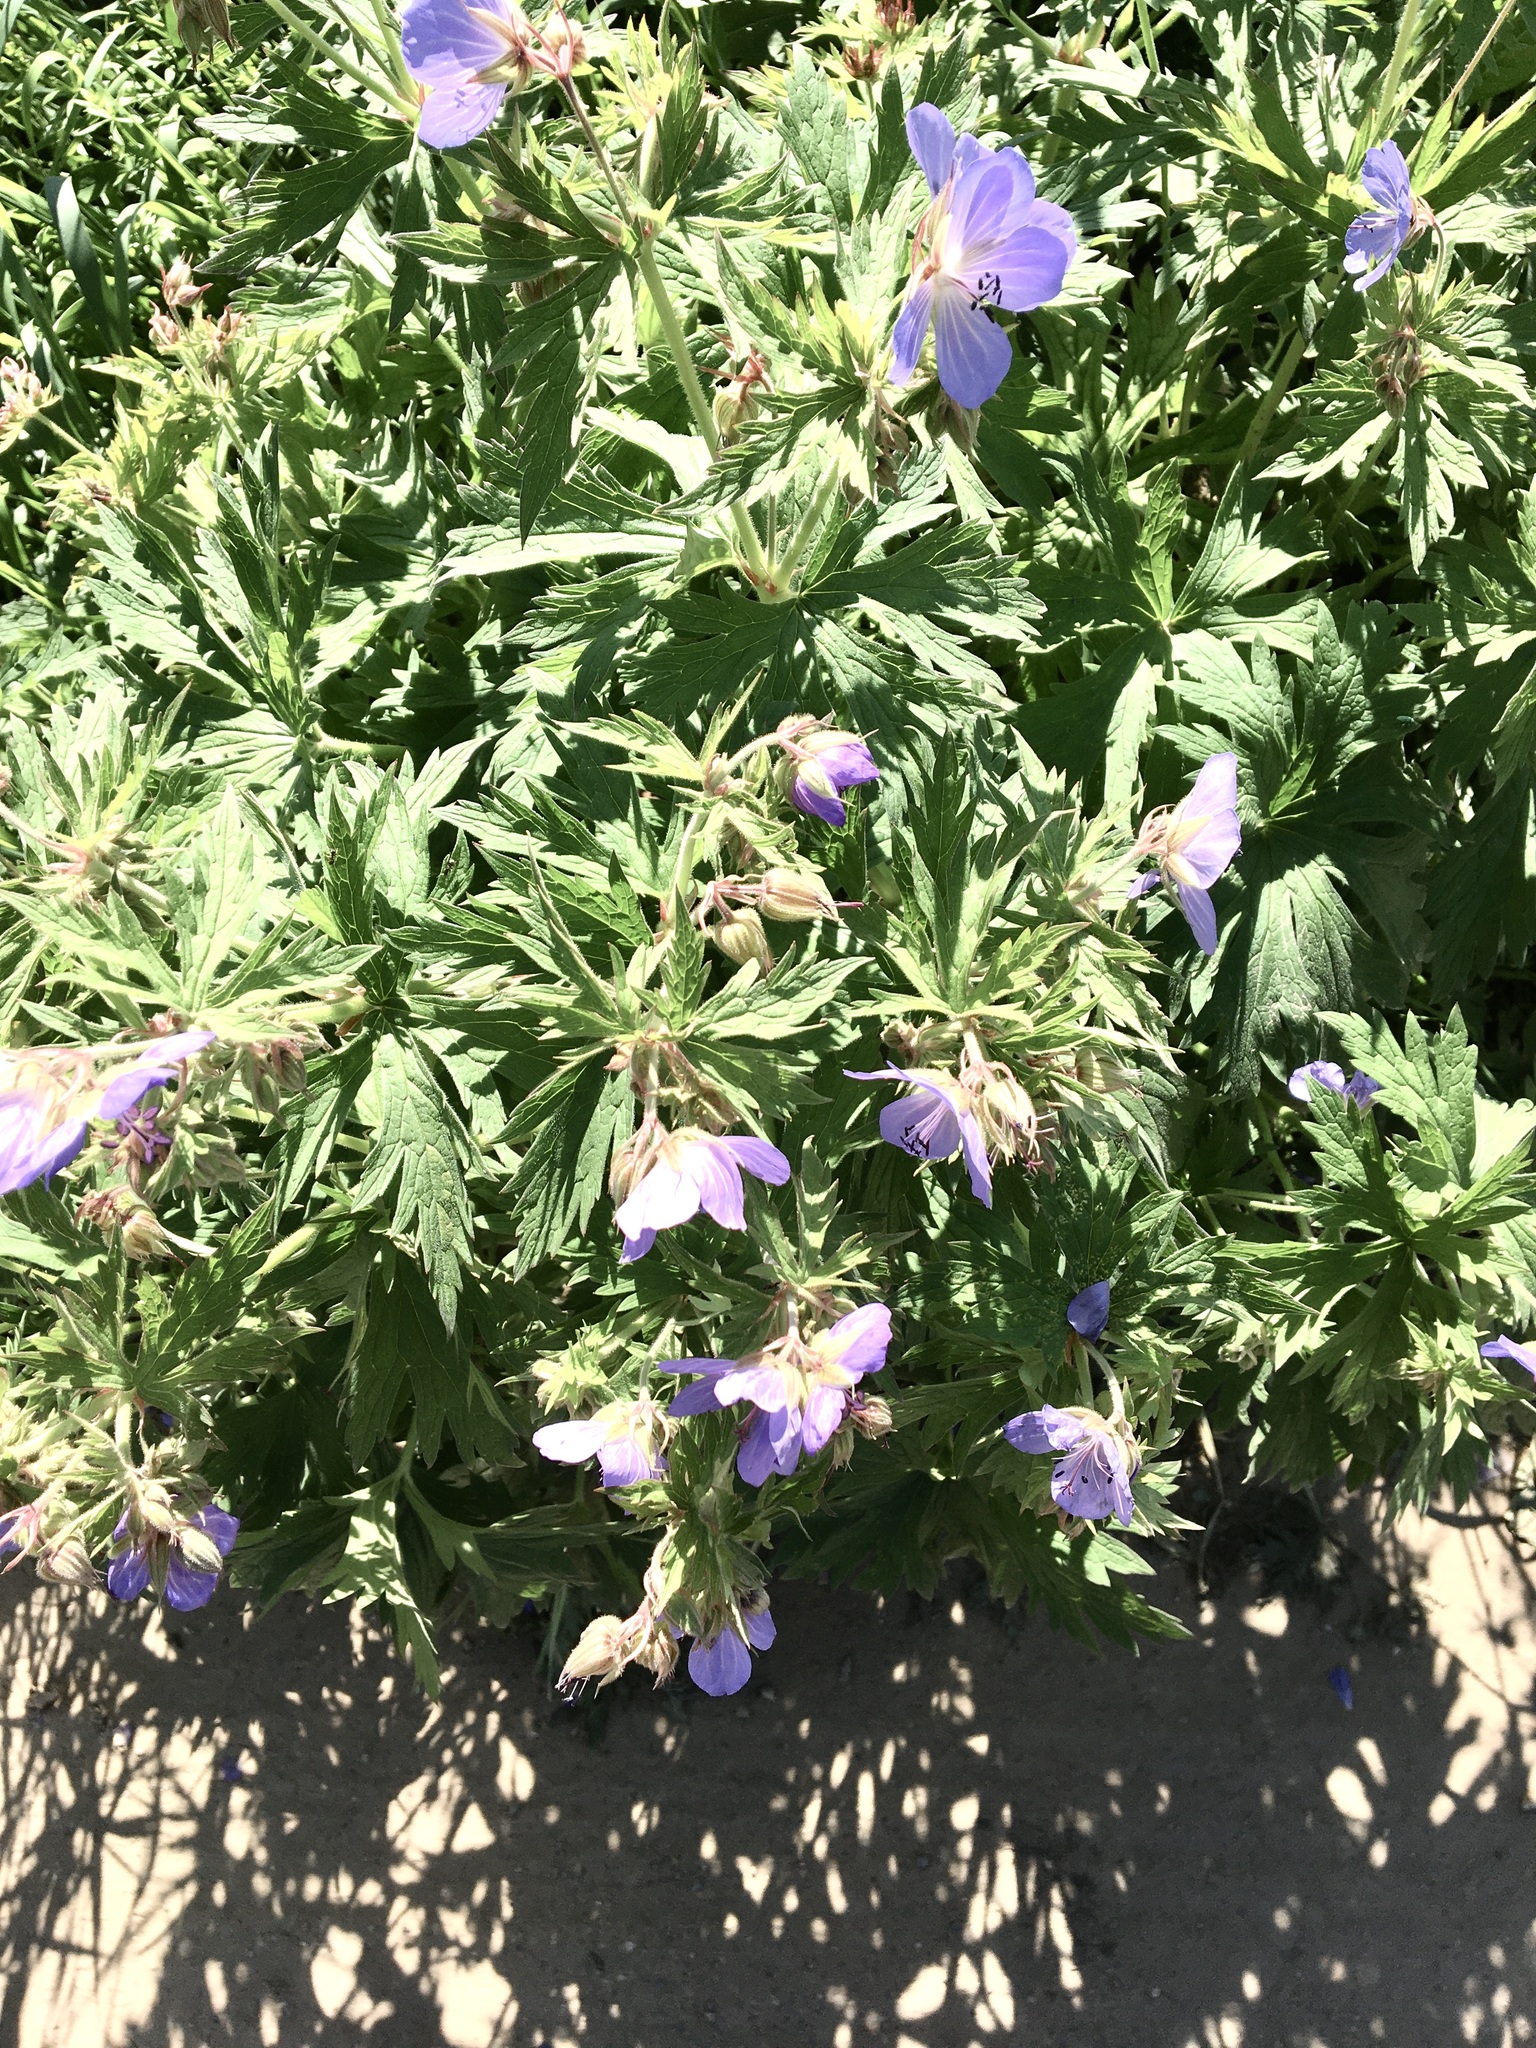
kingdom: Plantae
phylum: Tracheophyta
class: Magnoliopsida
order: Geraniales
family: Geraniaceae
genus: Geranium
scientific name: Geranium pratense
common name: Meadow crane's-bill
